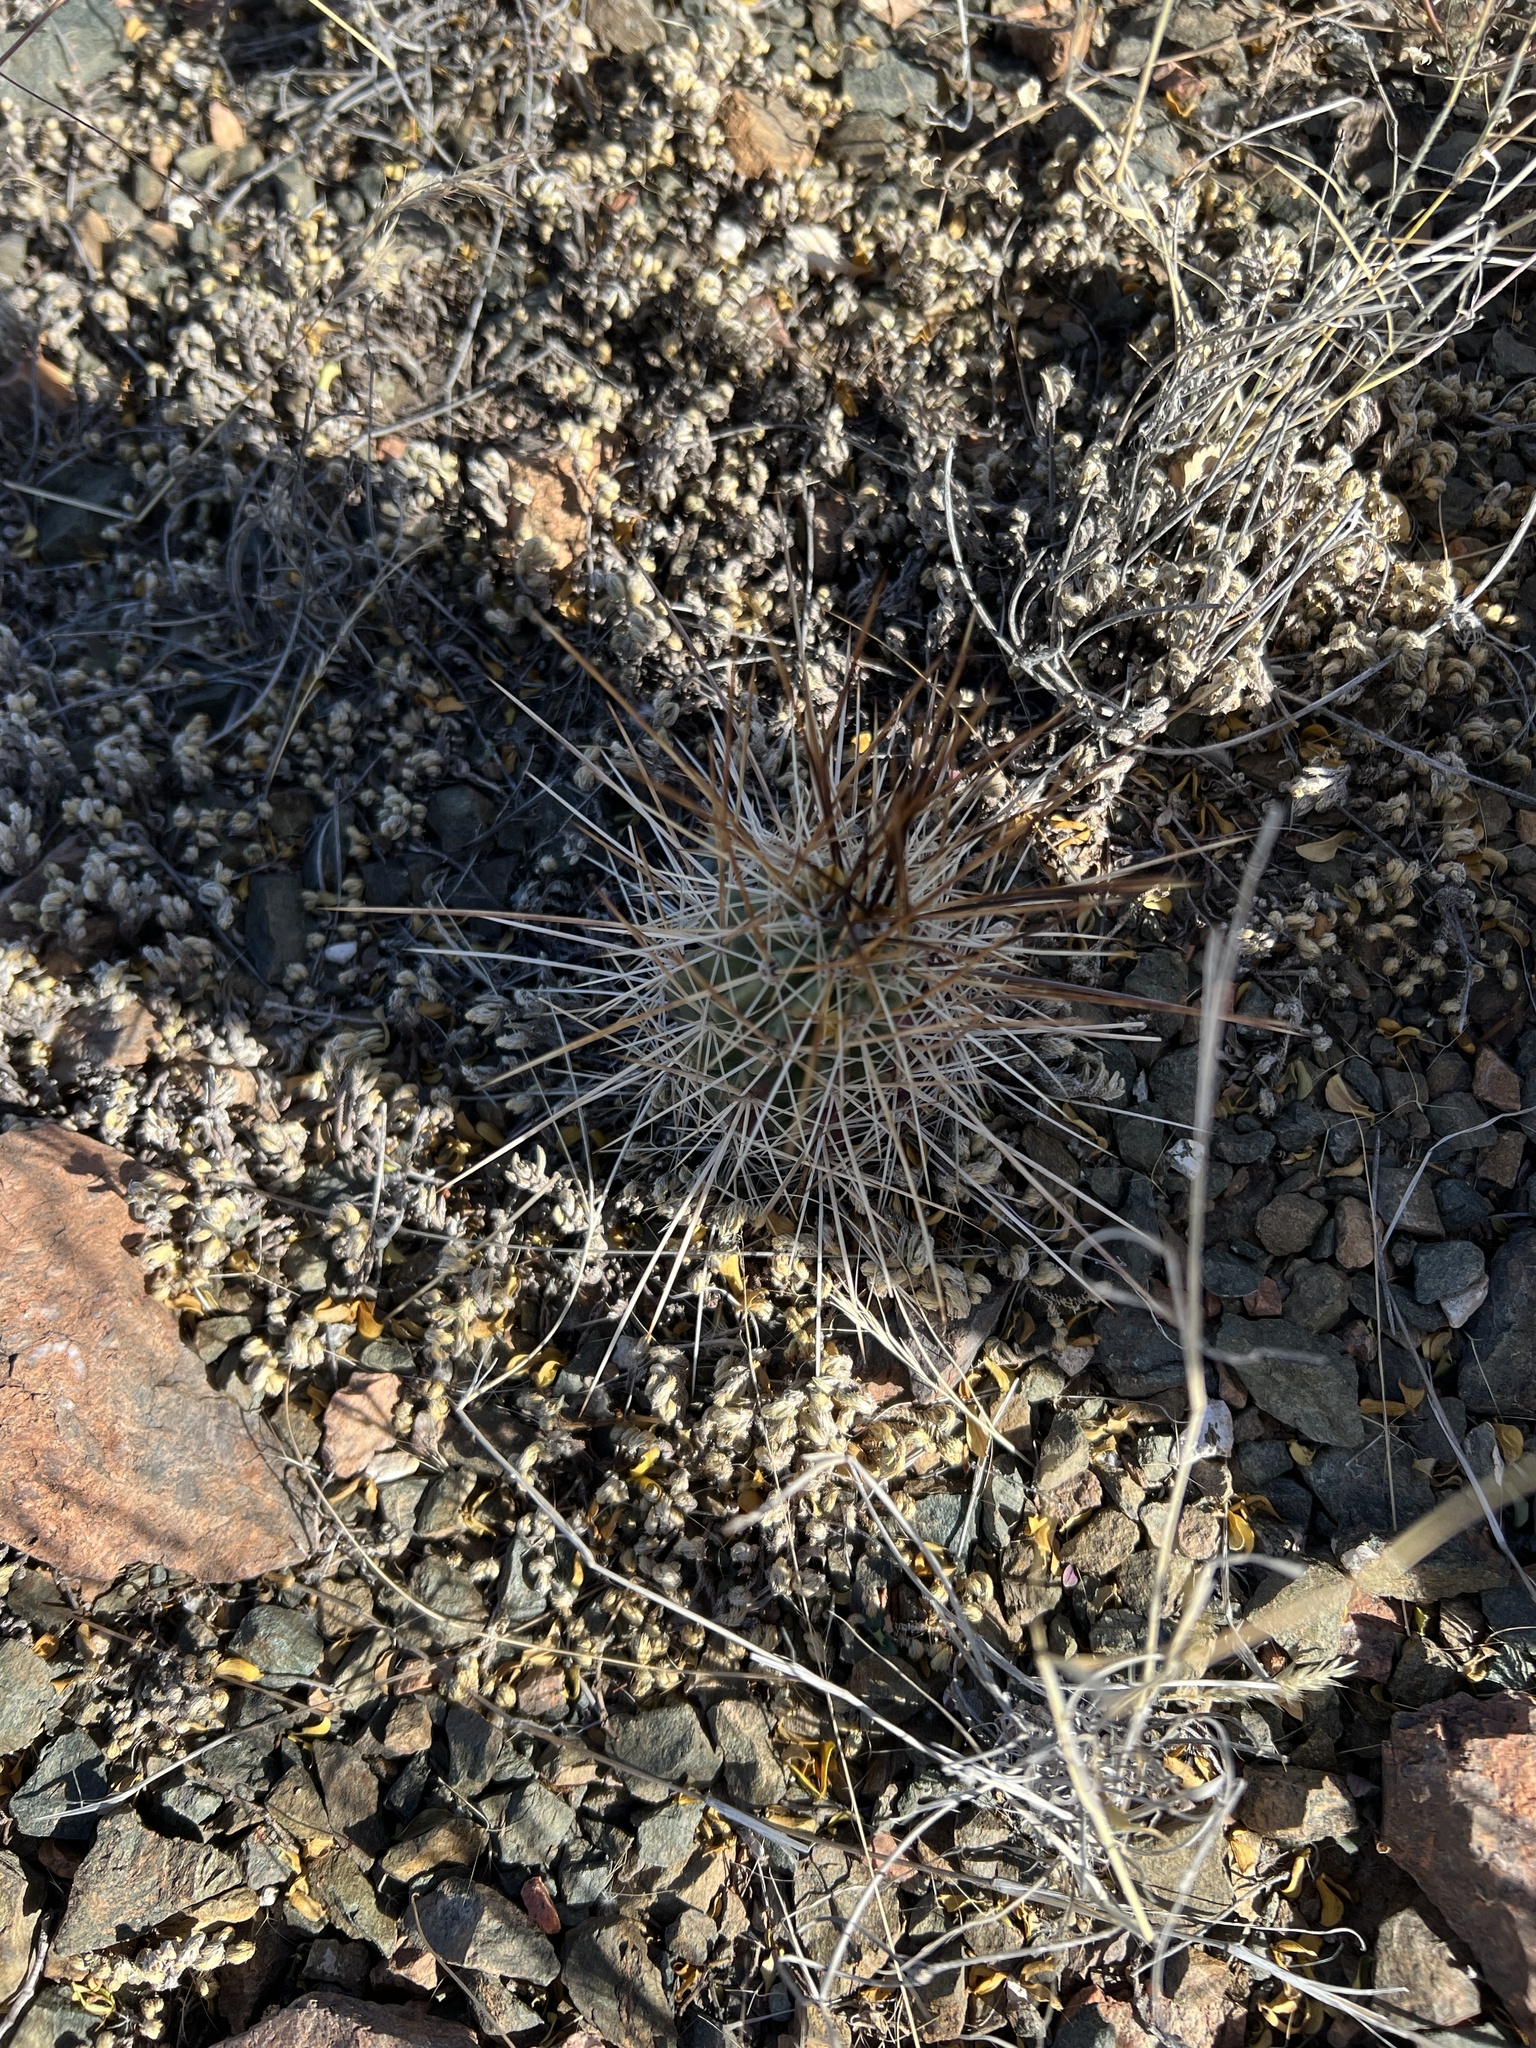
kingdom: Plantae
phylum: Tracheophyta
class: Magnoliopsida
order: Caryophyllales
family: Cactaceae
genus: Echinocereus
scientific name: Echinocereus stramineus
